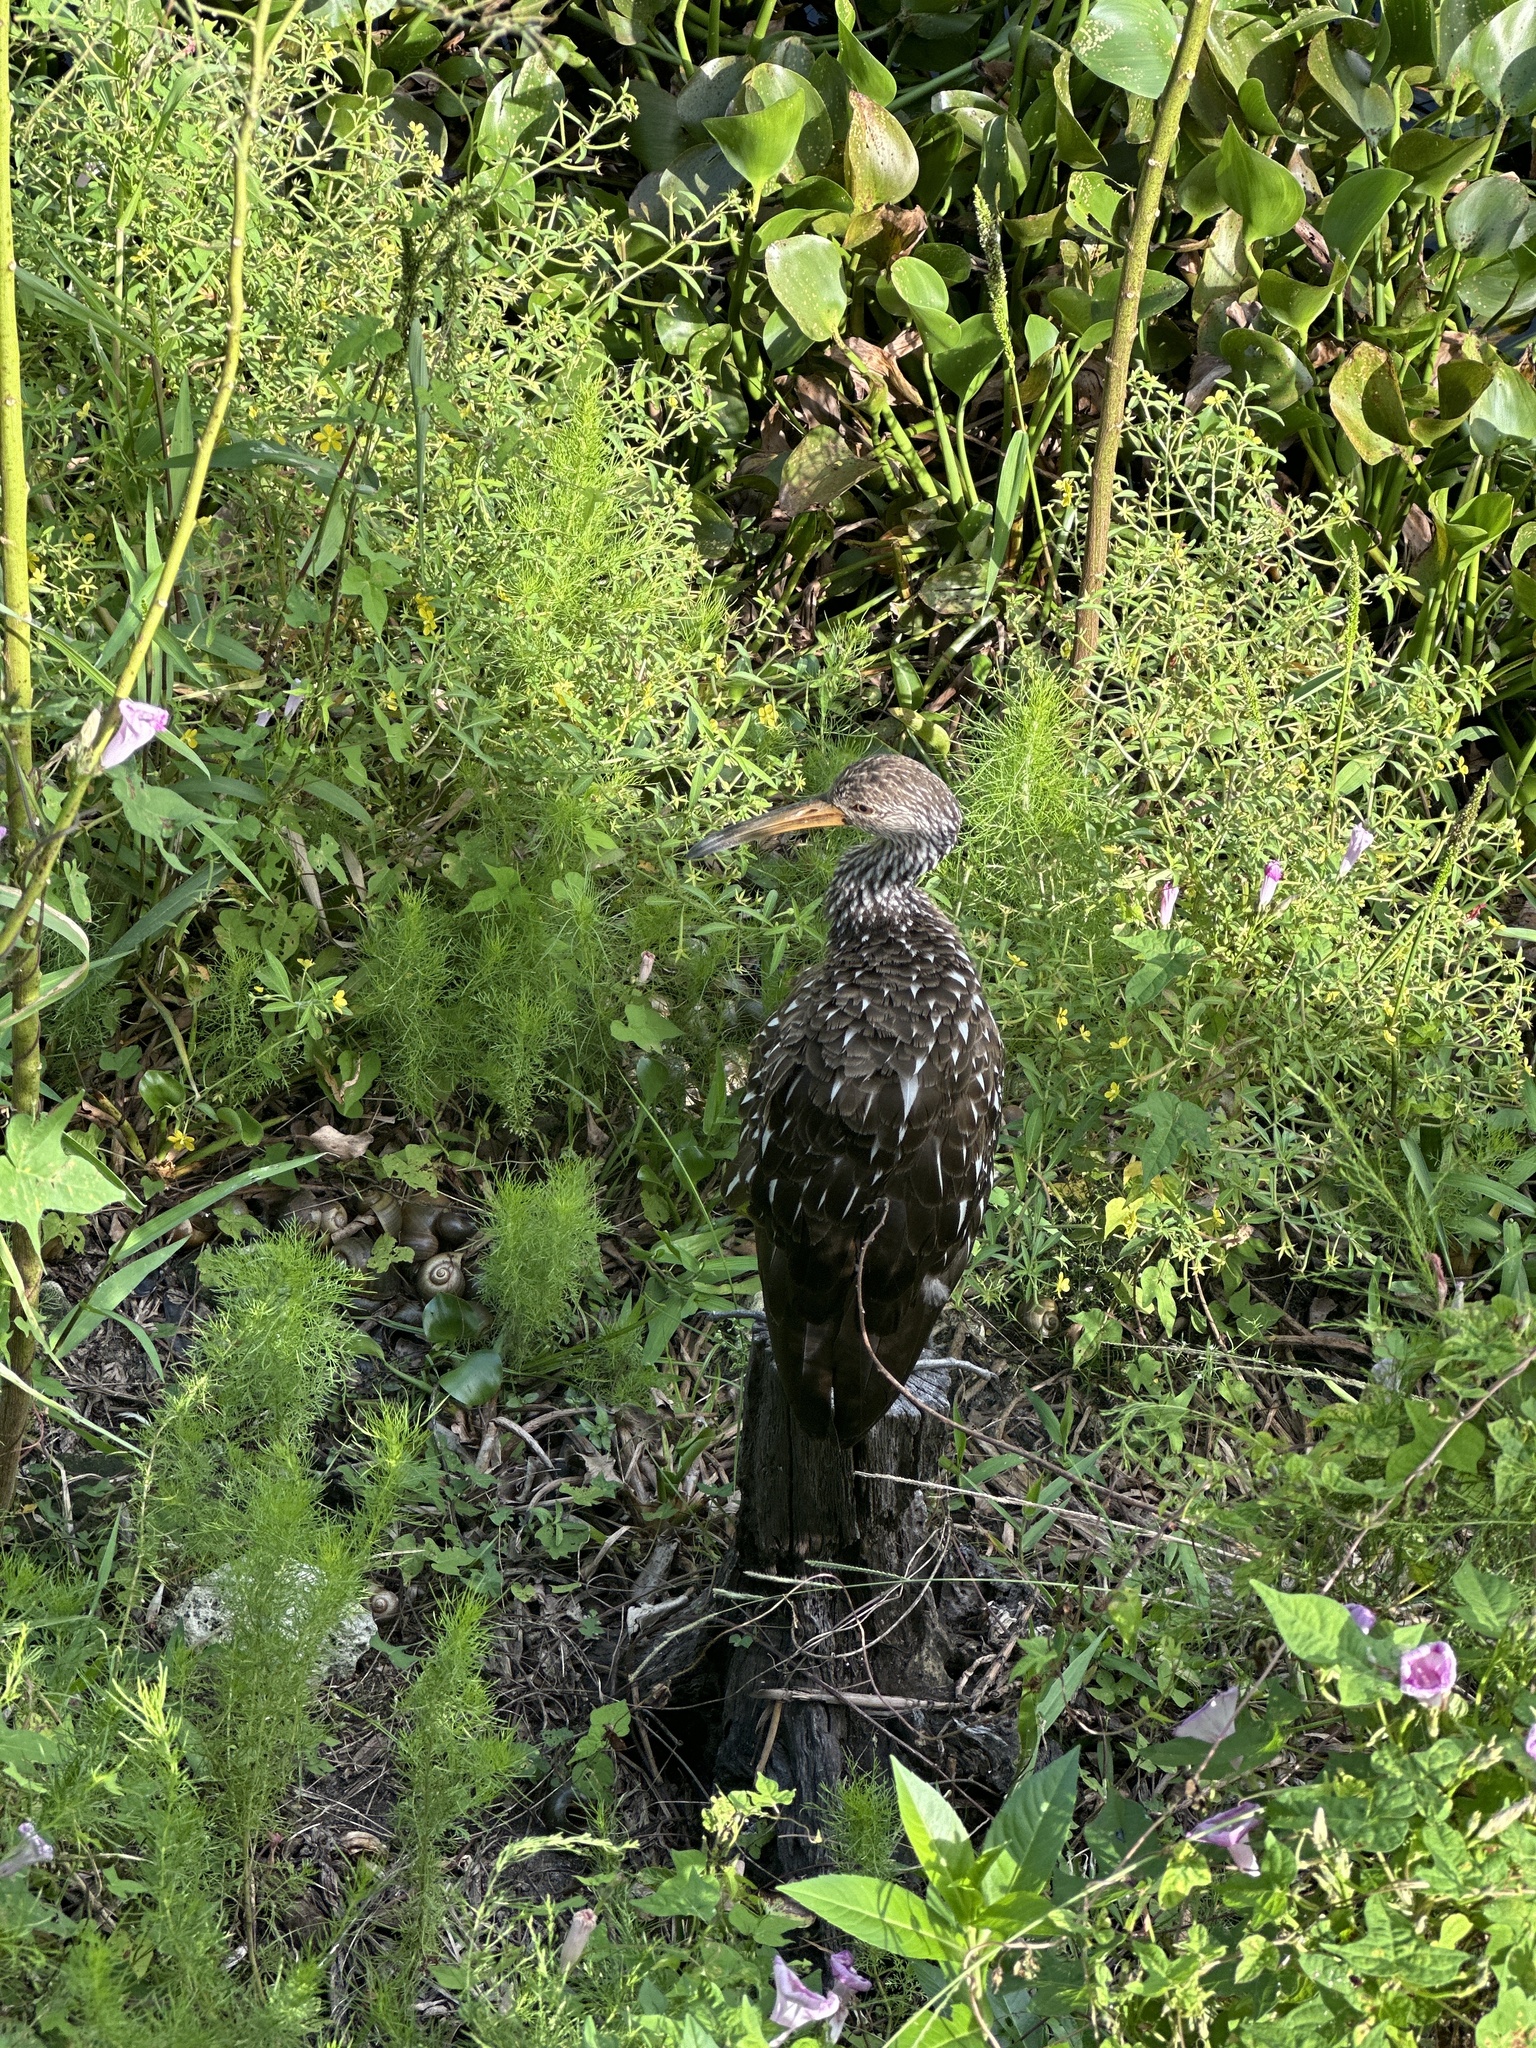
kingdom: Animalia
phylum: Chordata
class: Aves
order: Gruiformes
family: Aramidae
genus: Aramus
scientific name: Aramus guarauna
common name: Limpkin
